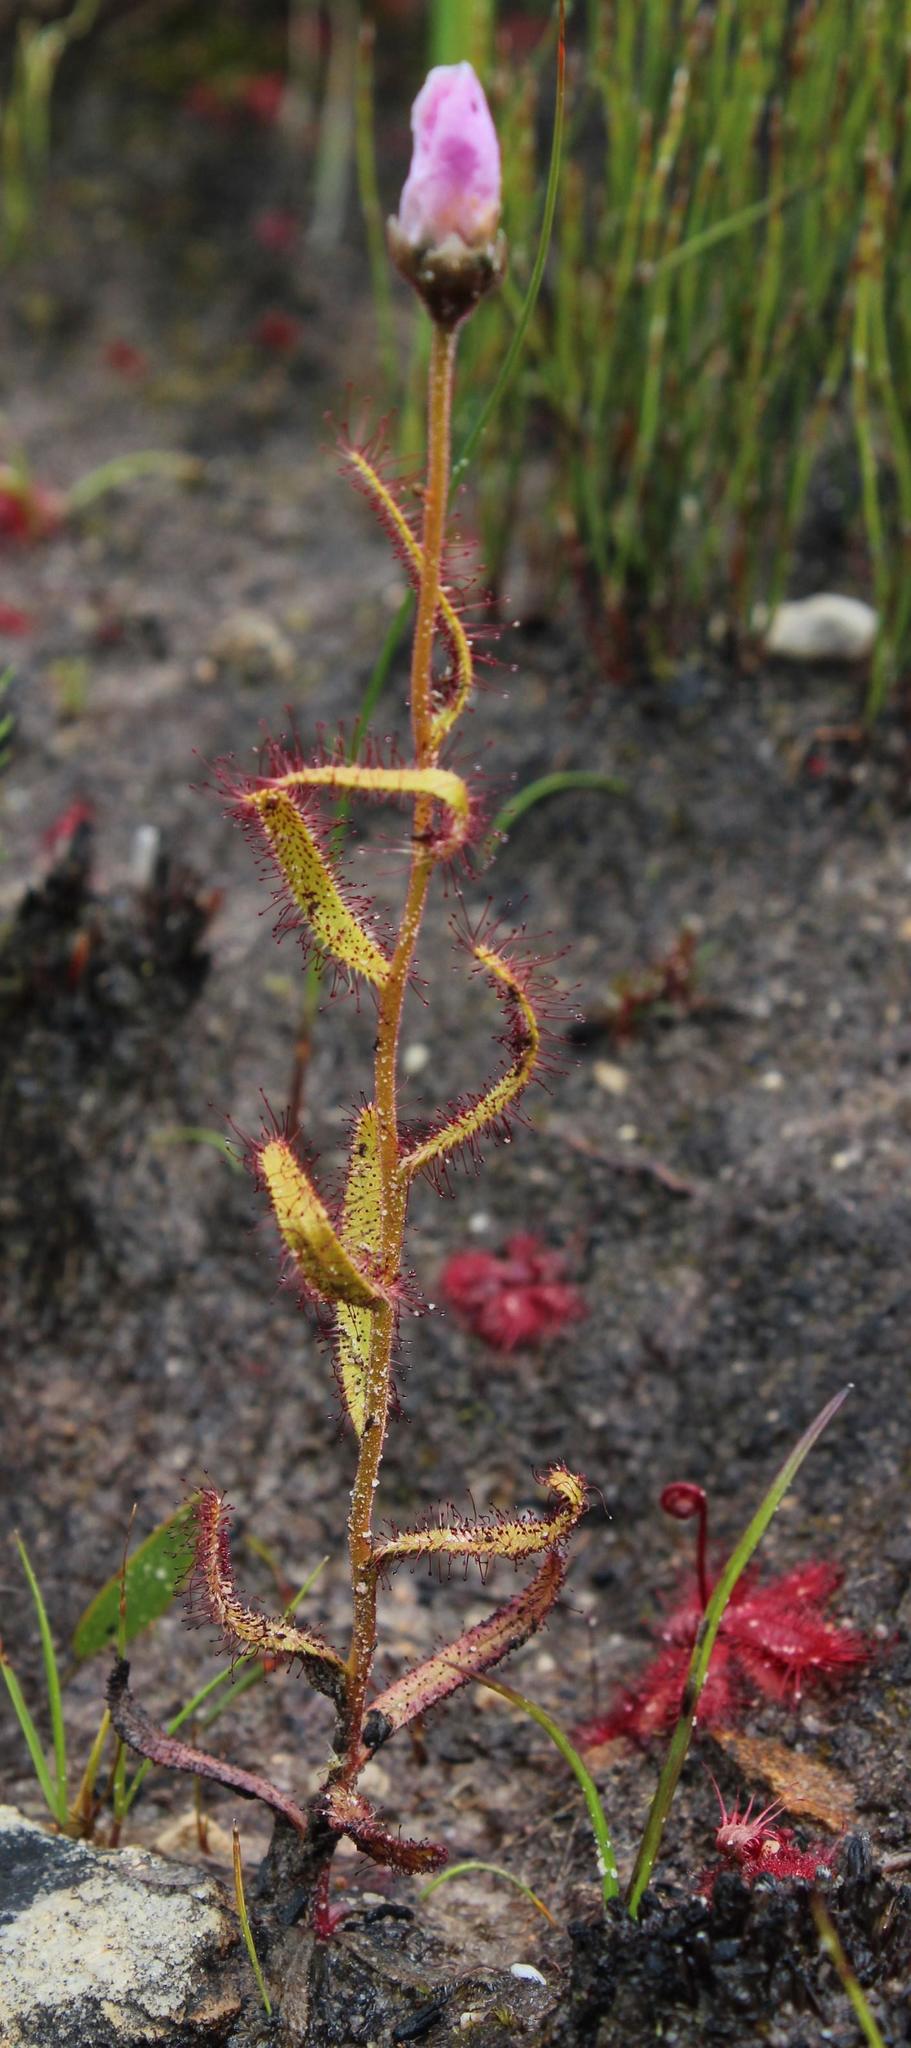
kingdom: Plantae
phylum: Tracheophyta
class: Magnoliopsida
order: Caryophyllales
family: Droseraceae
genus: Drosera
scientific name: Drosera cistiflora
